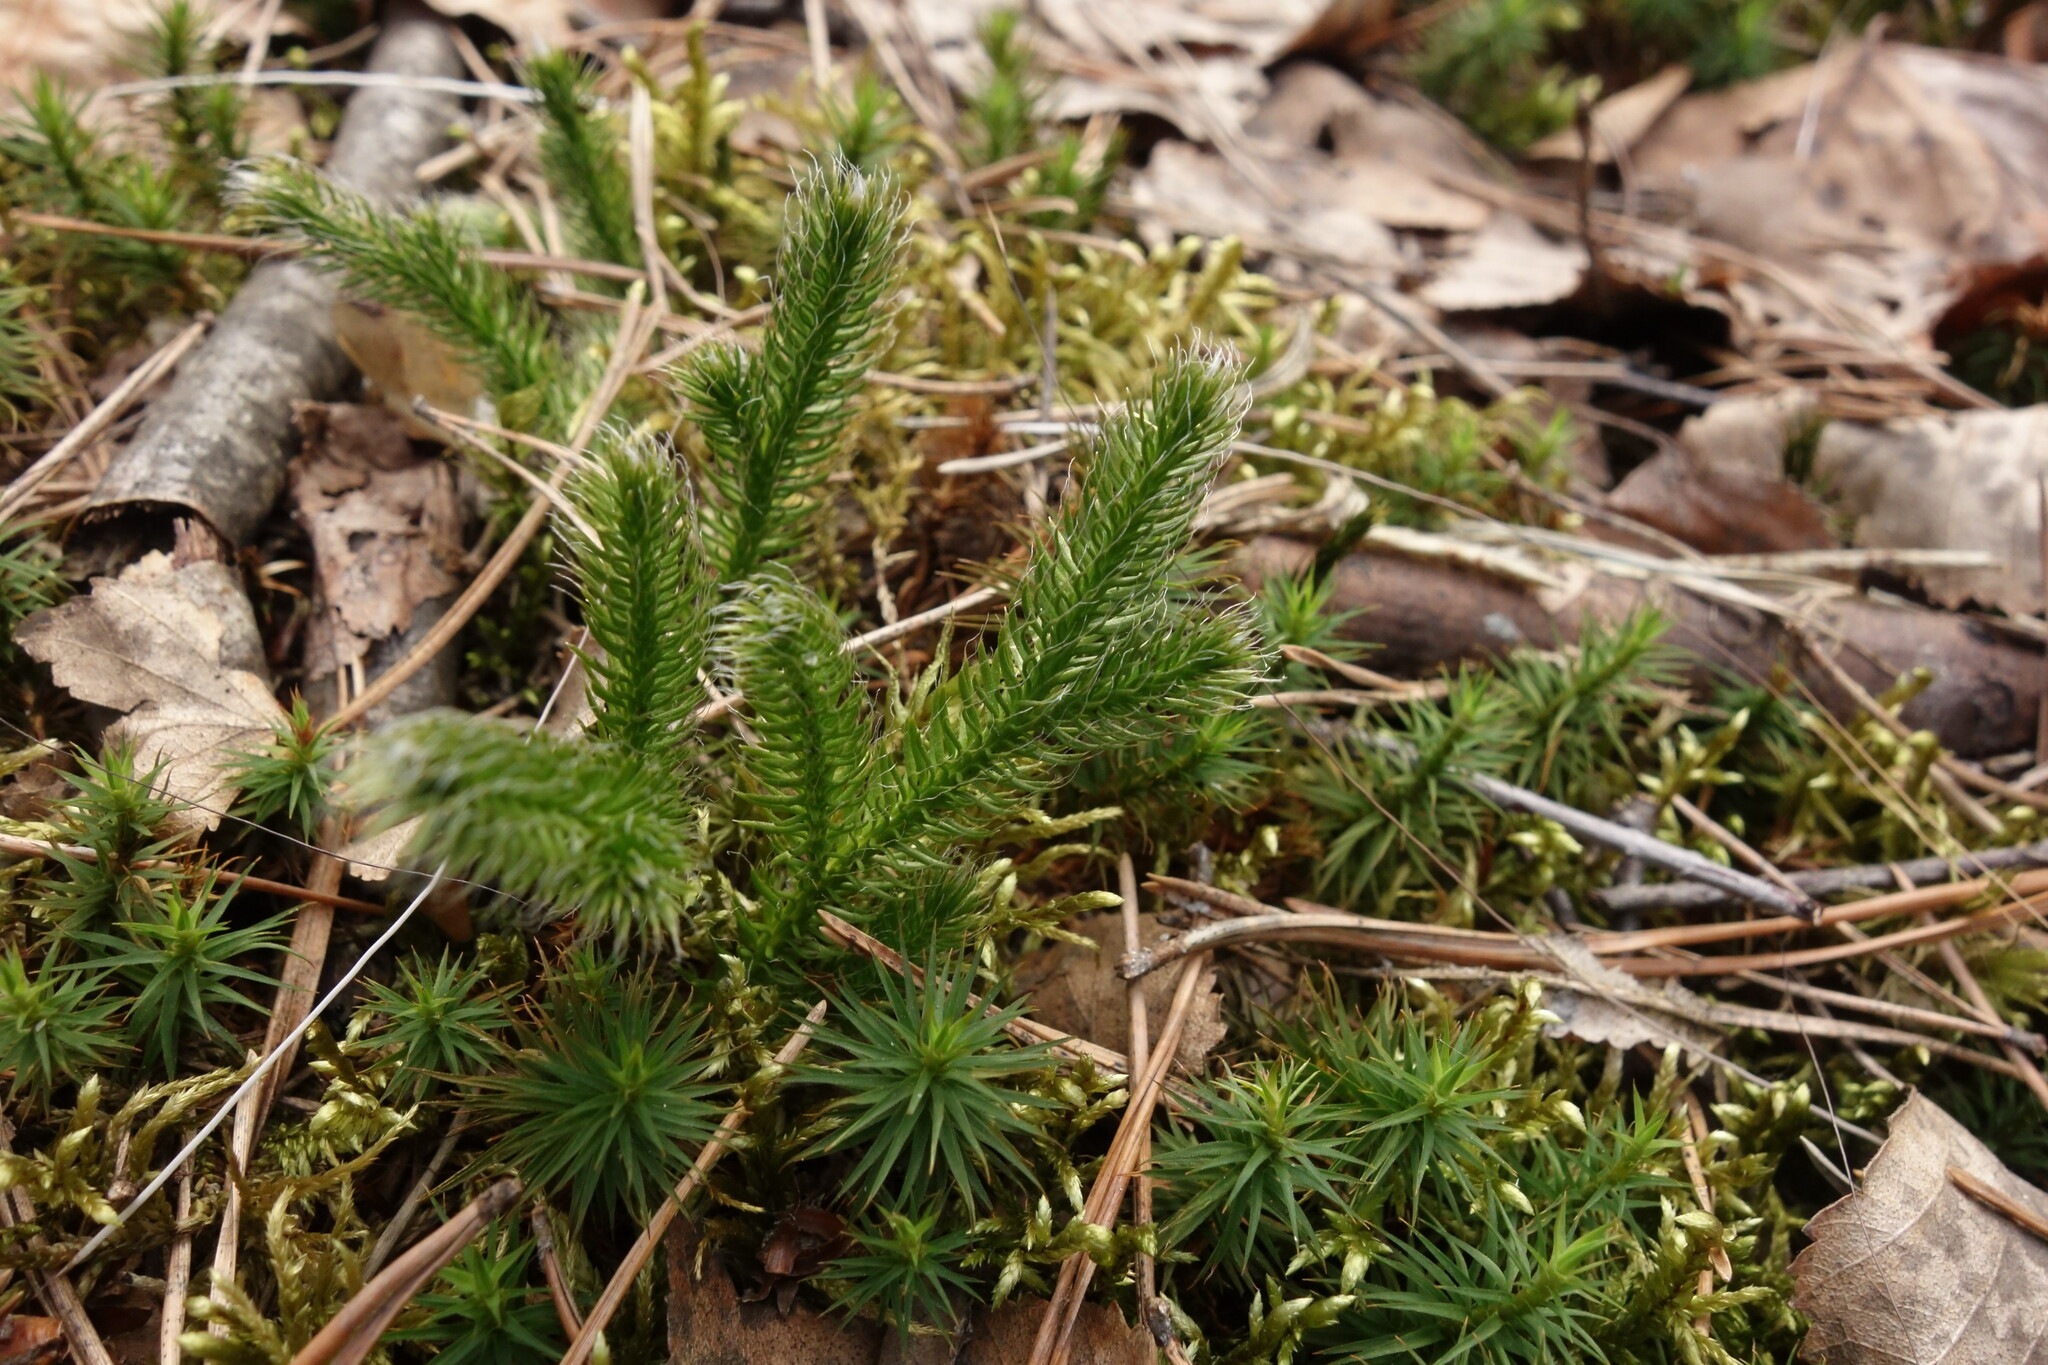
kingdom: Plantae
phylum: Tracheophyta
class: Lycopodiopsida
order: Lycopodiales
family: Lycopodiaceae
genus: Lycopodium
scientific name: Lycopodium clavatum
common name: Stag's-horn clubmoss
